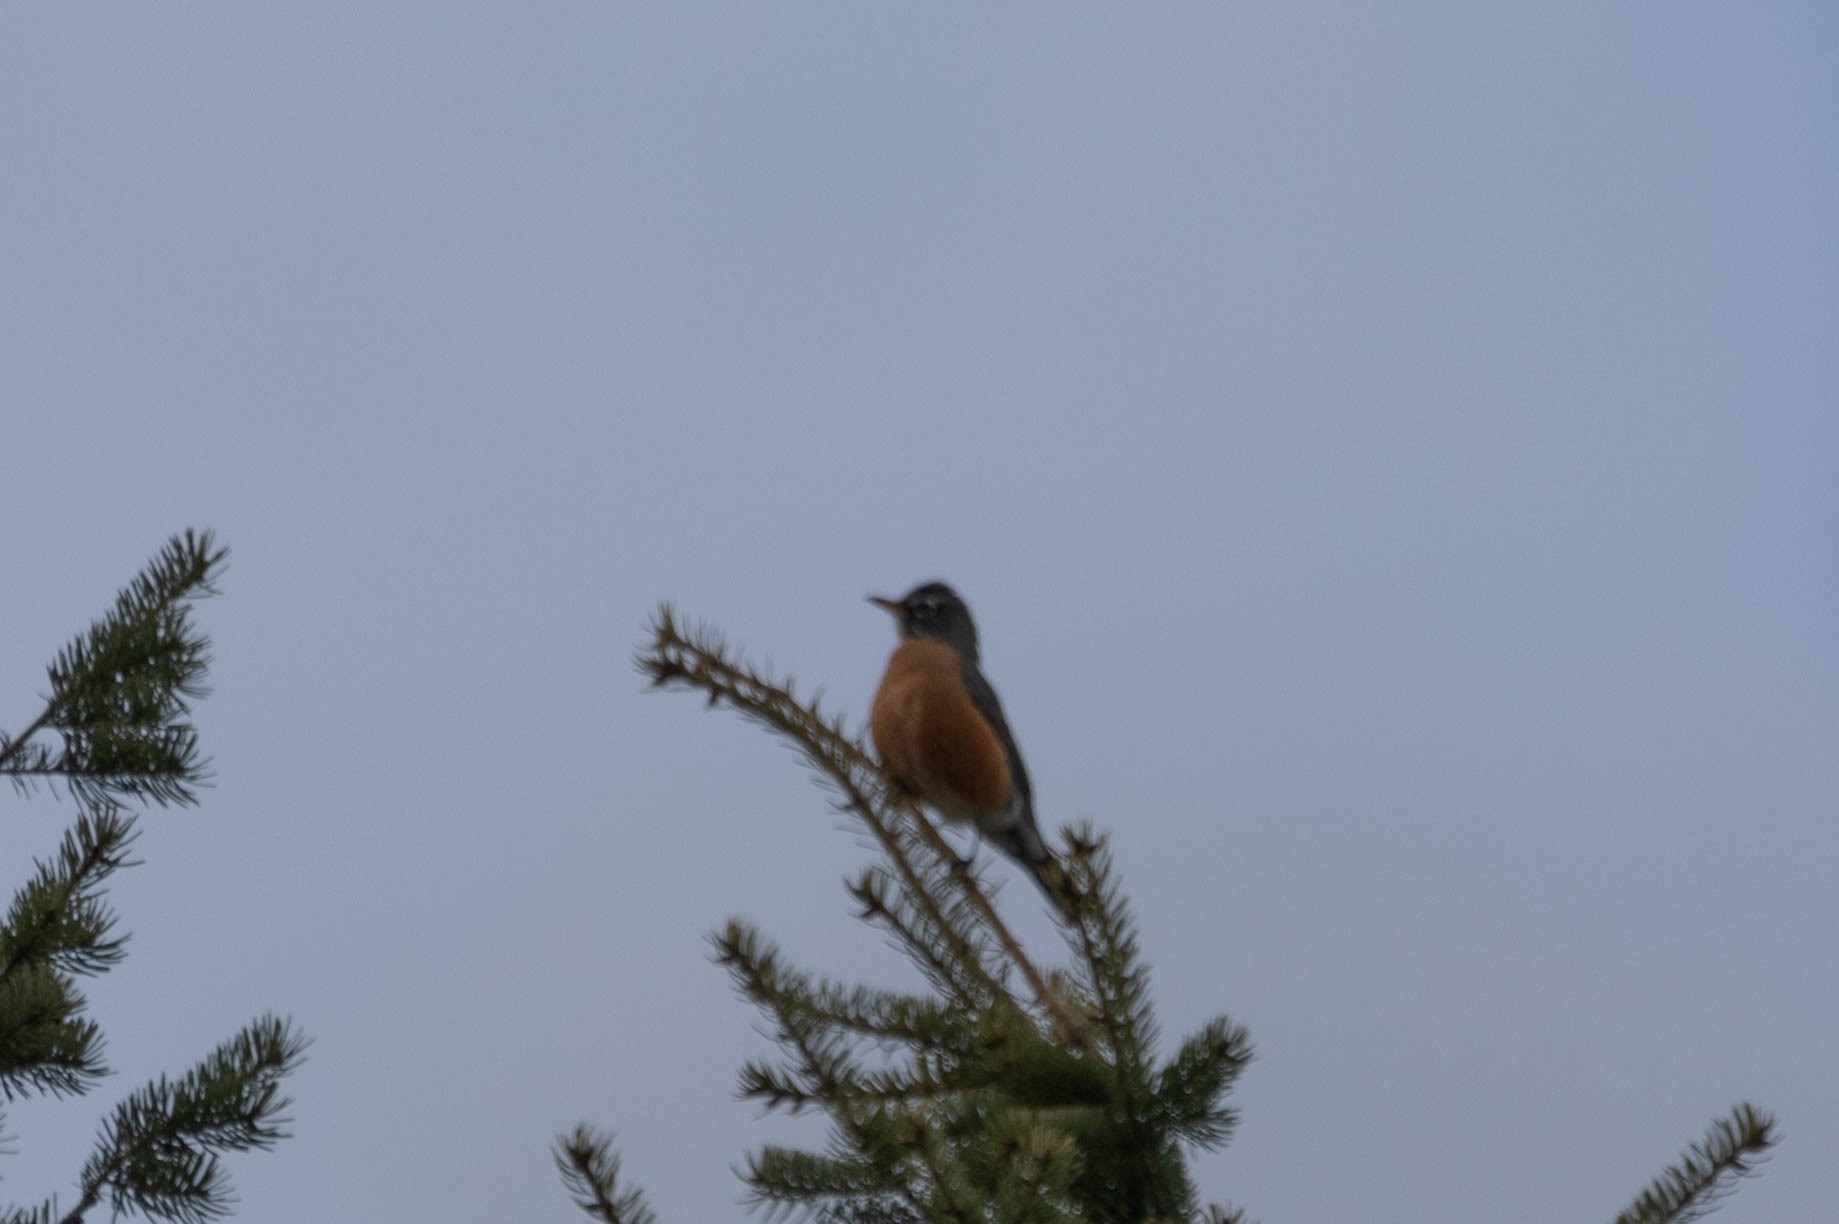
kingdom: Animalia
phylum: Chordata
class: Aves
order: Passeriformes
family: Turdidae
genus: Turdus
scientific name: Turdus migratorius
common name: American robin
